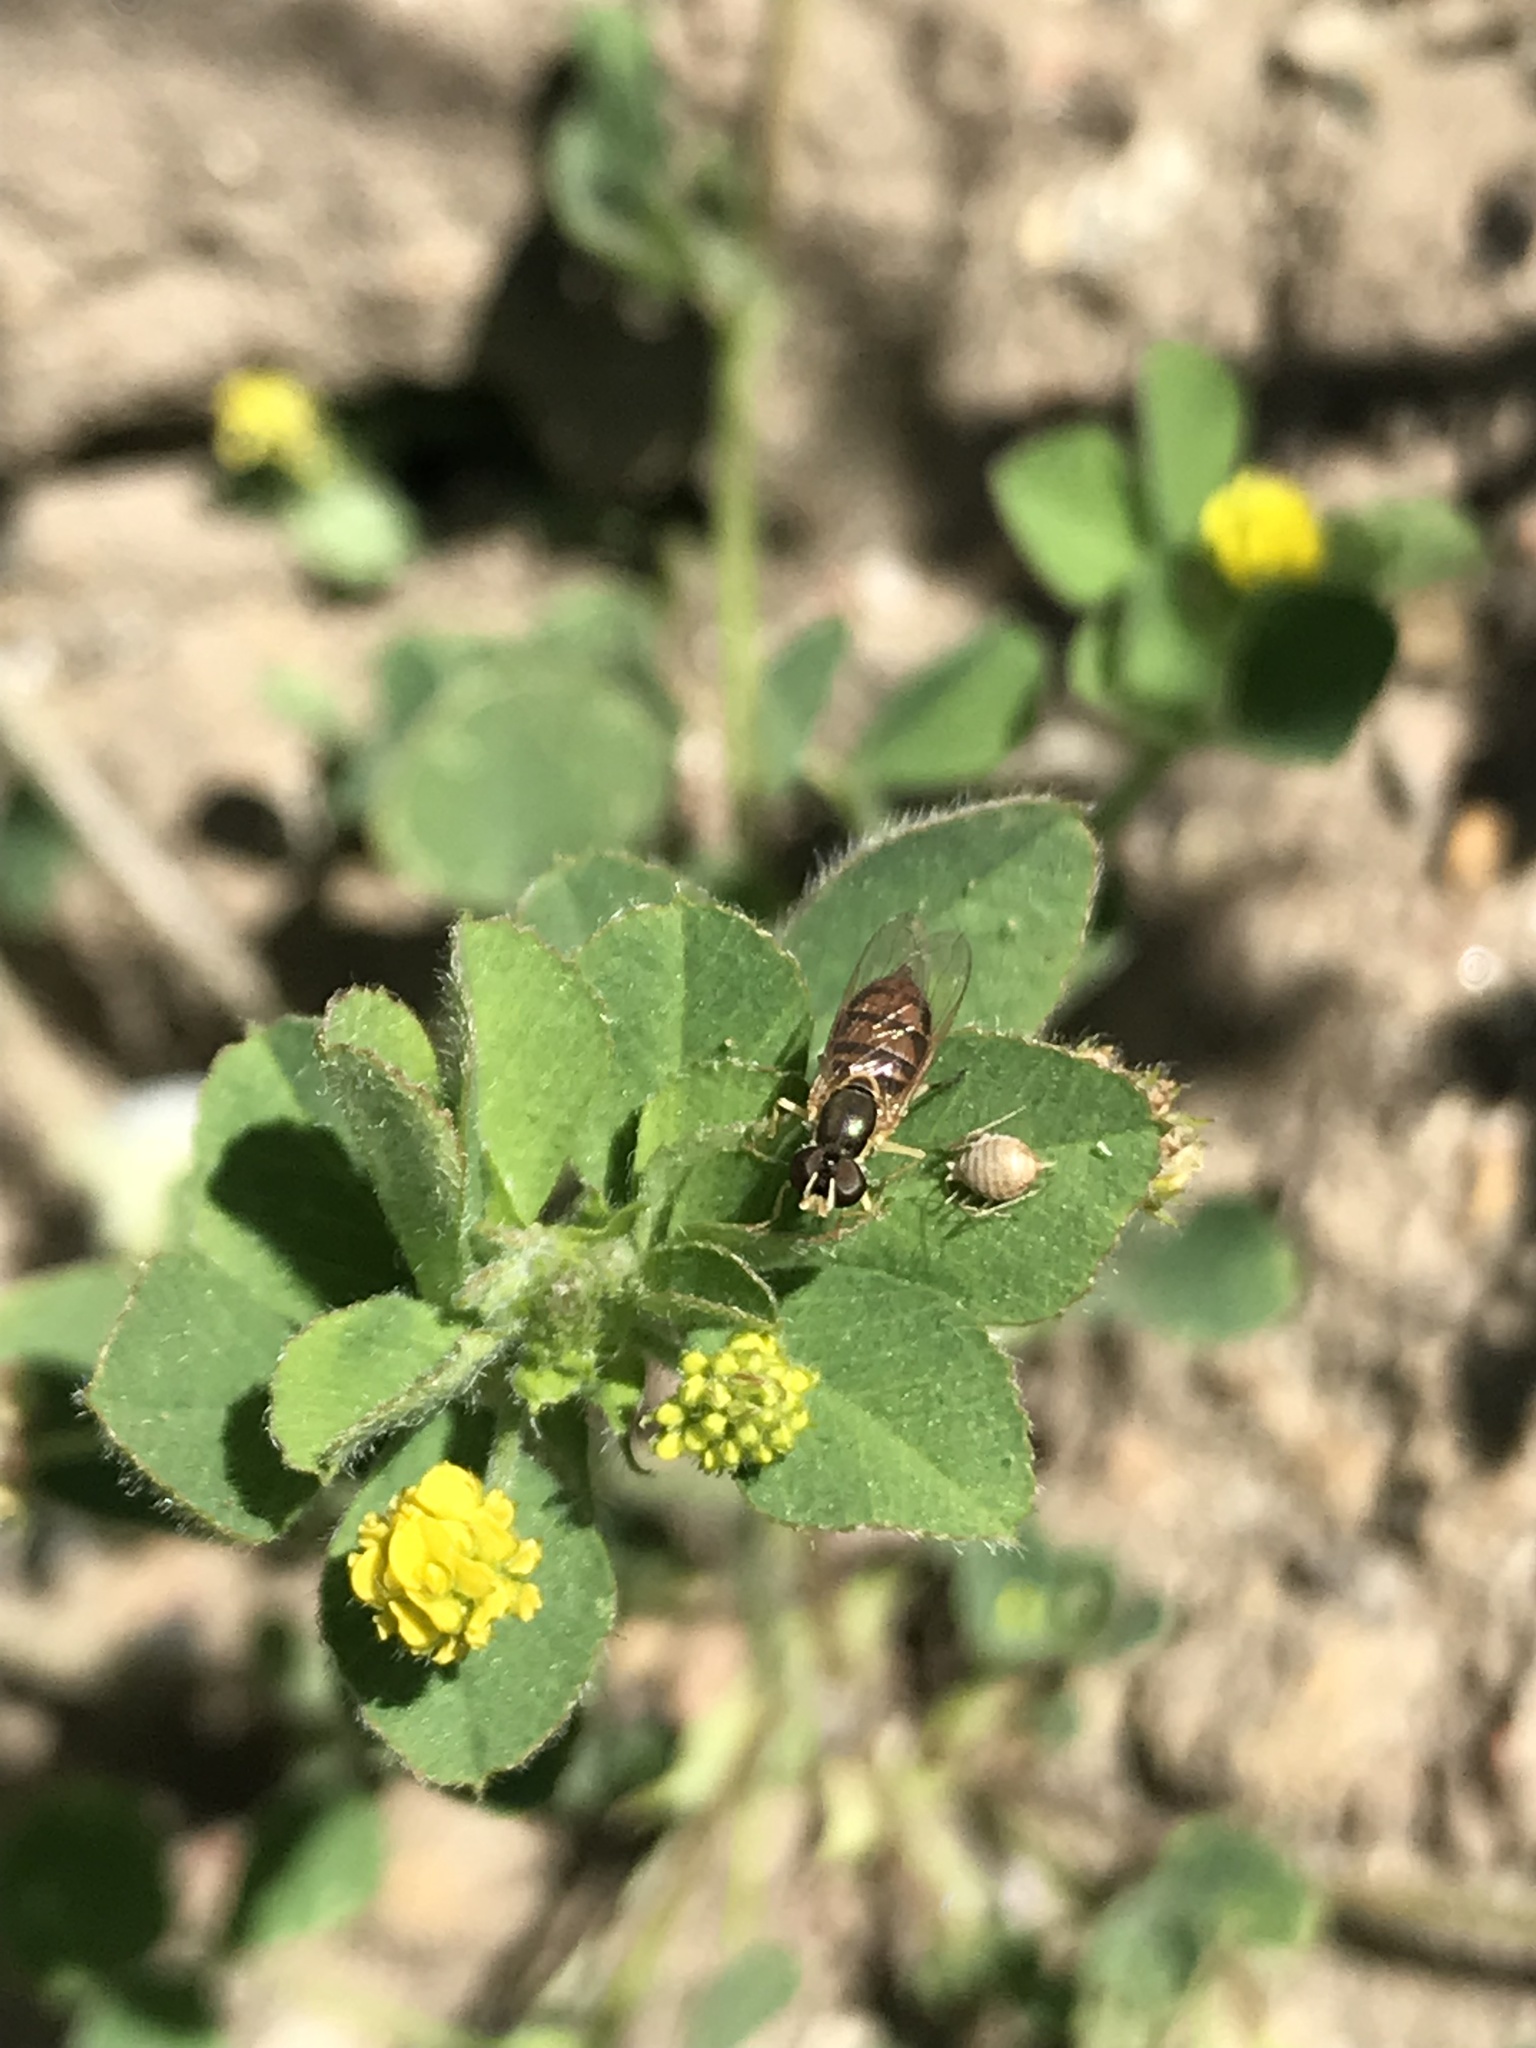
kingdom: Animalia
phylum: Arthropoda
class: Insecta
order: Diptera
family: Syrphidae
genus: Toxomerus
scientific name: Toxomerus marginatus
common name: Syrphid fly
